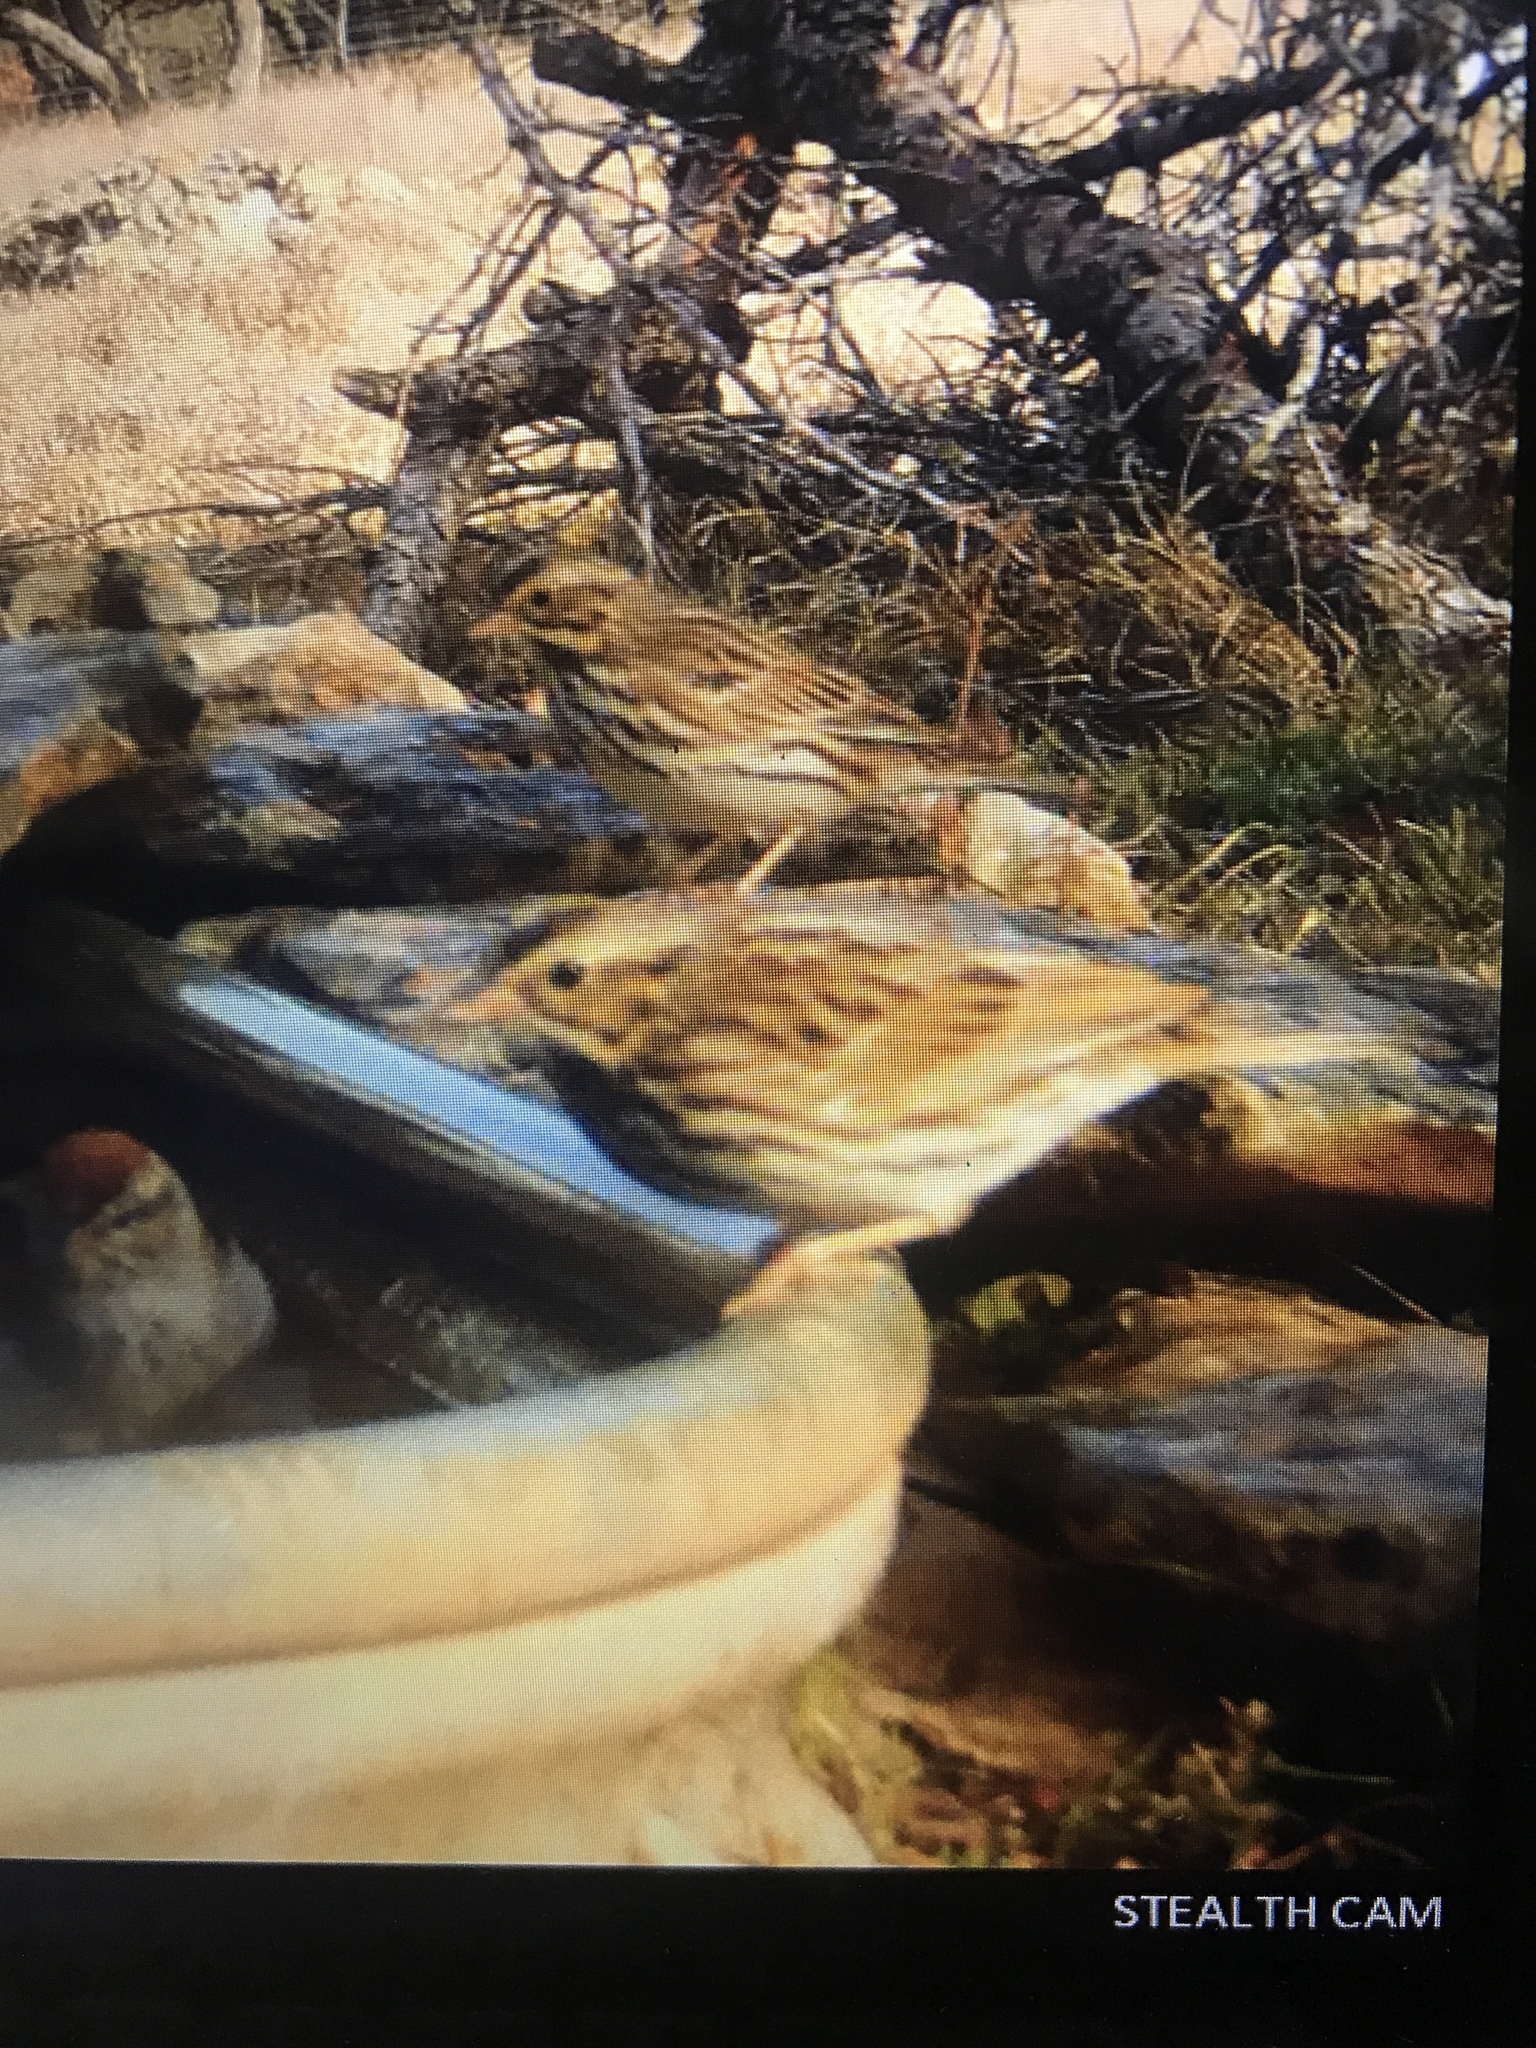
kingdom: Animalia
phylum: Chordata
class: Aves
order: Passeriformes
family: Passerellidae
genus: Passerculus
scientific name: Passerculus sandwichensis
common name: Savannah sparrow
